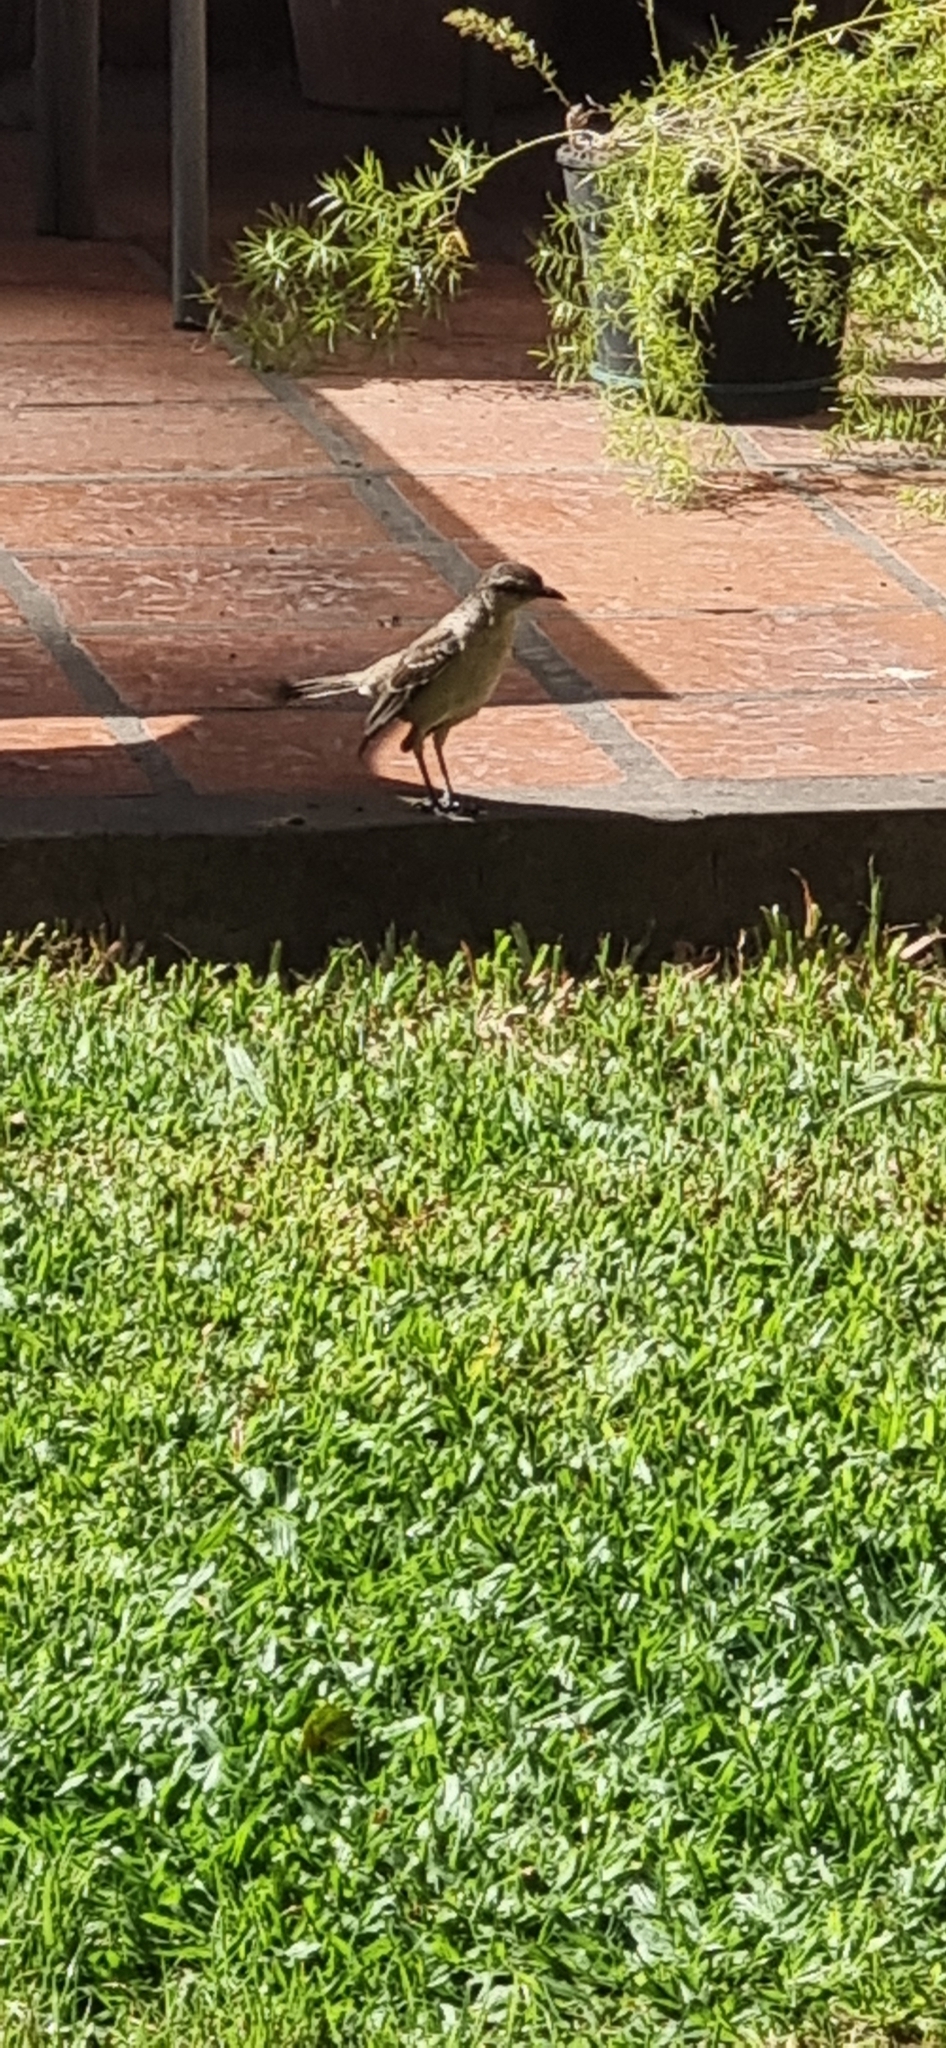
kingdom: Animalia
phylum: Chordata
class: Aves
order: Passeriformes
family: Mimidae
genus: Mimus
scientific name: Mimus saturninus
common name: Chalk-browed mockingbird
